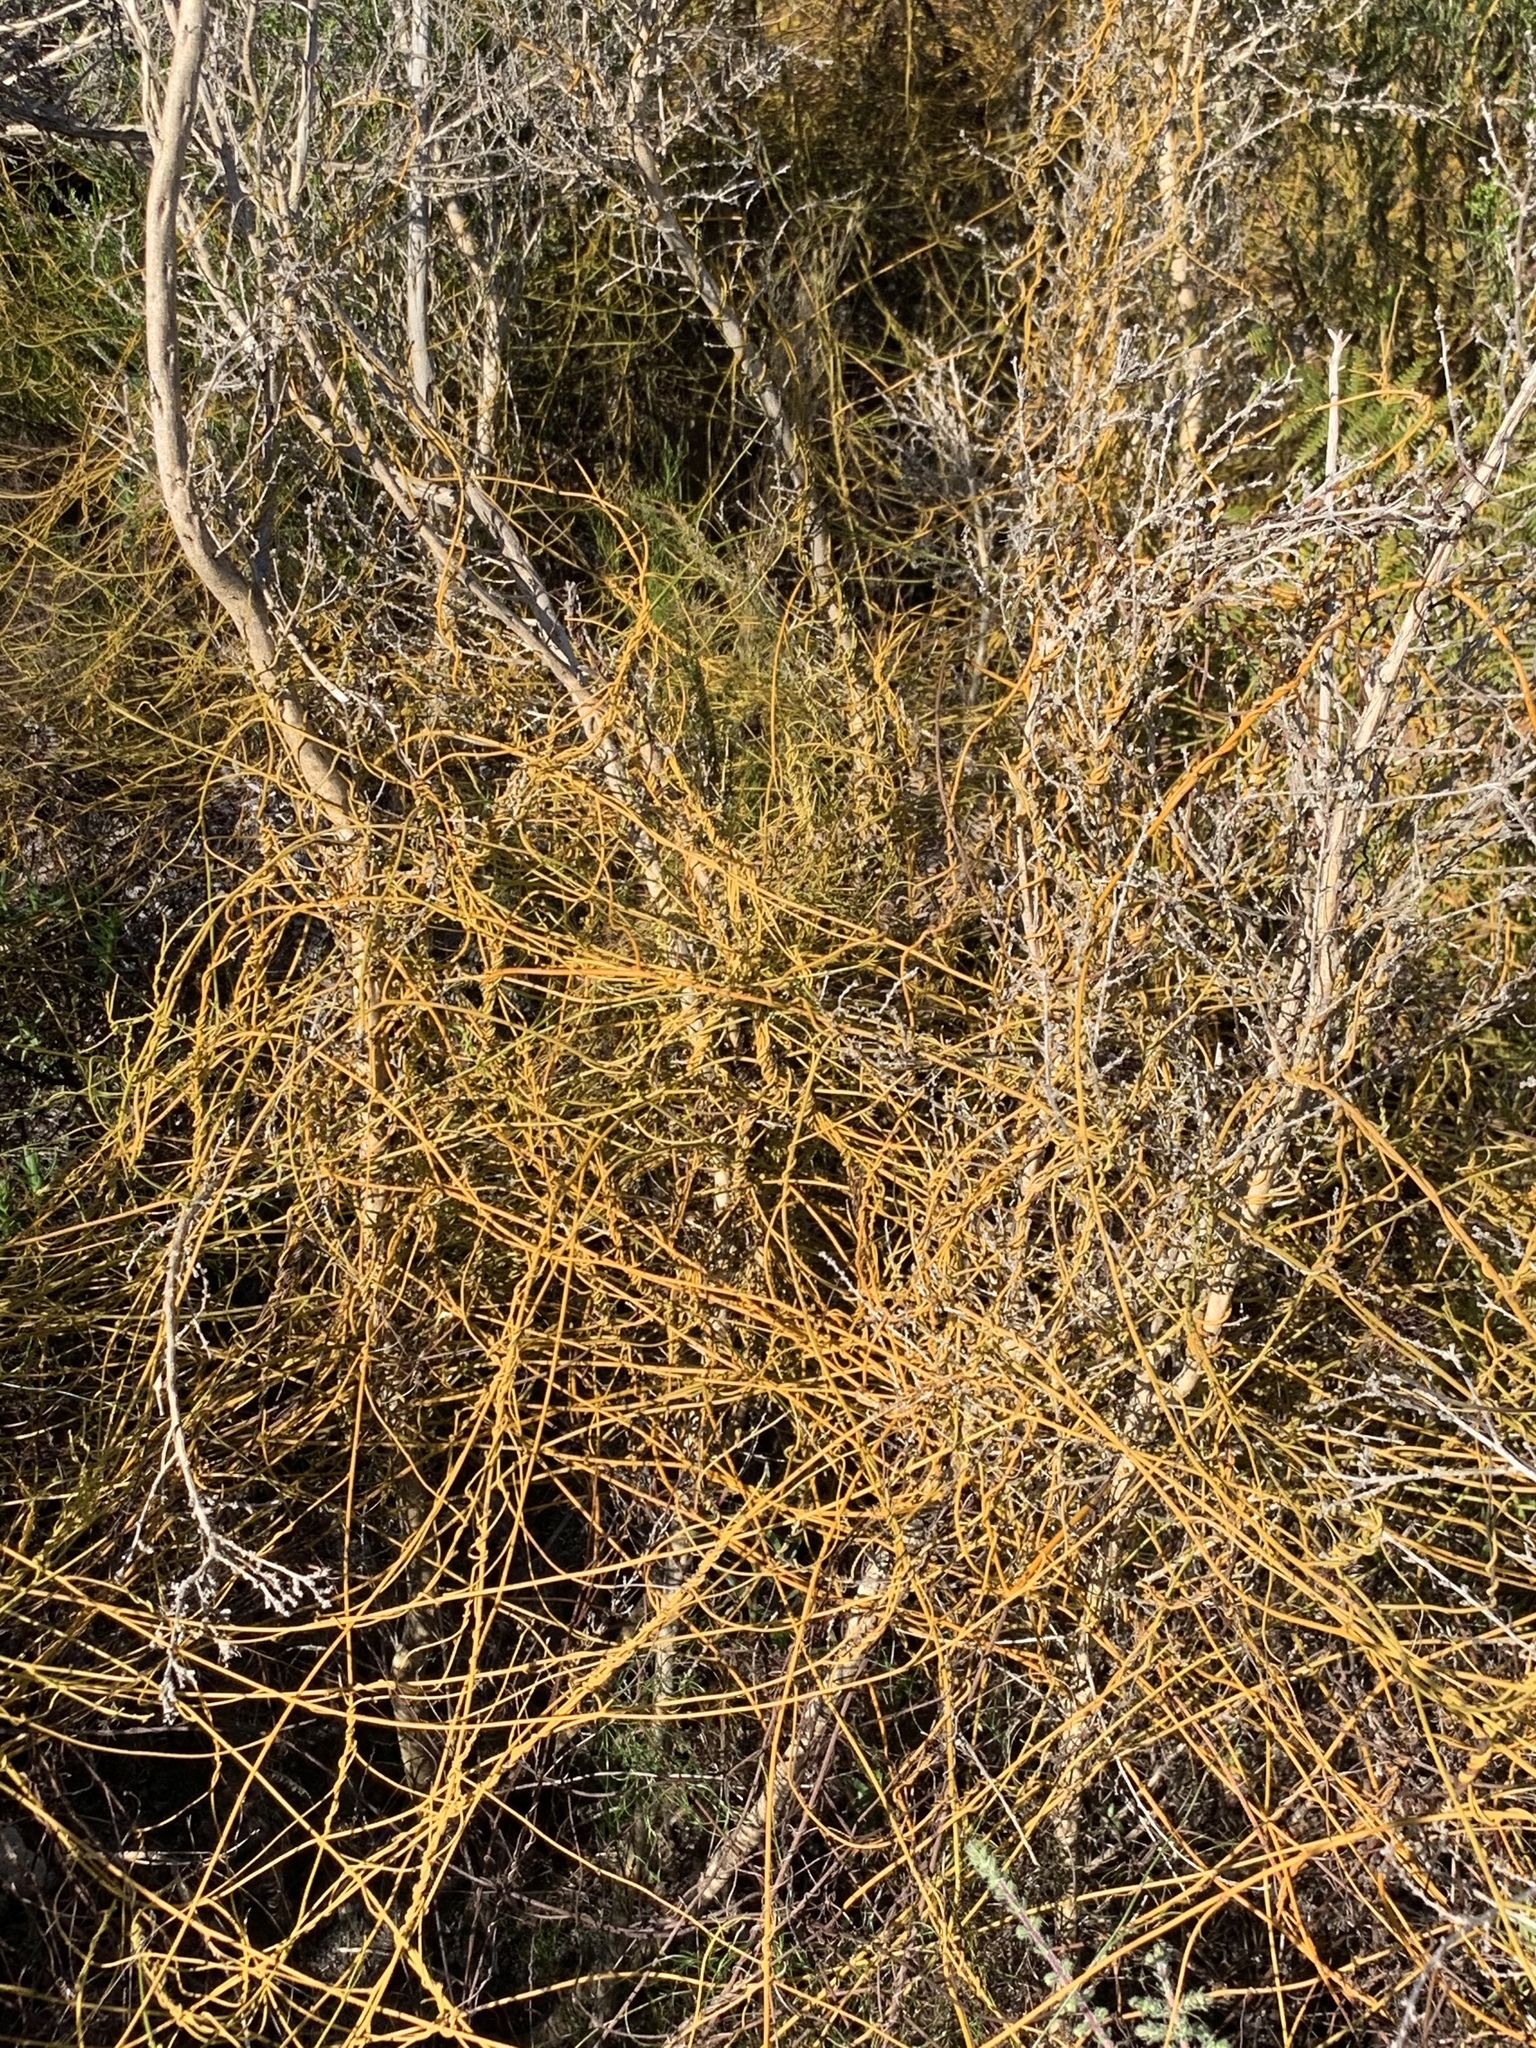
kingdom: Plantae
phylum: Tracheophyta
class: Magnoliopsida
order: Laurales
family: Lauraceae
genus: Cassytha
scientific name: Cassytha ciliolata
